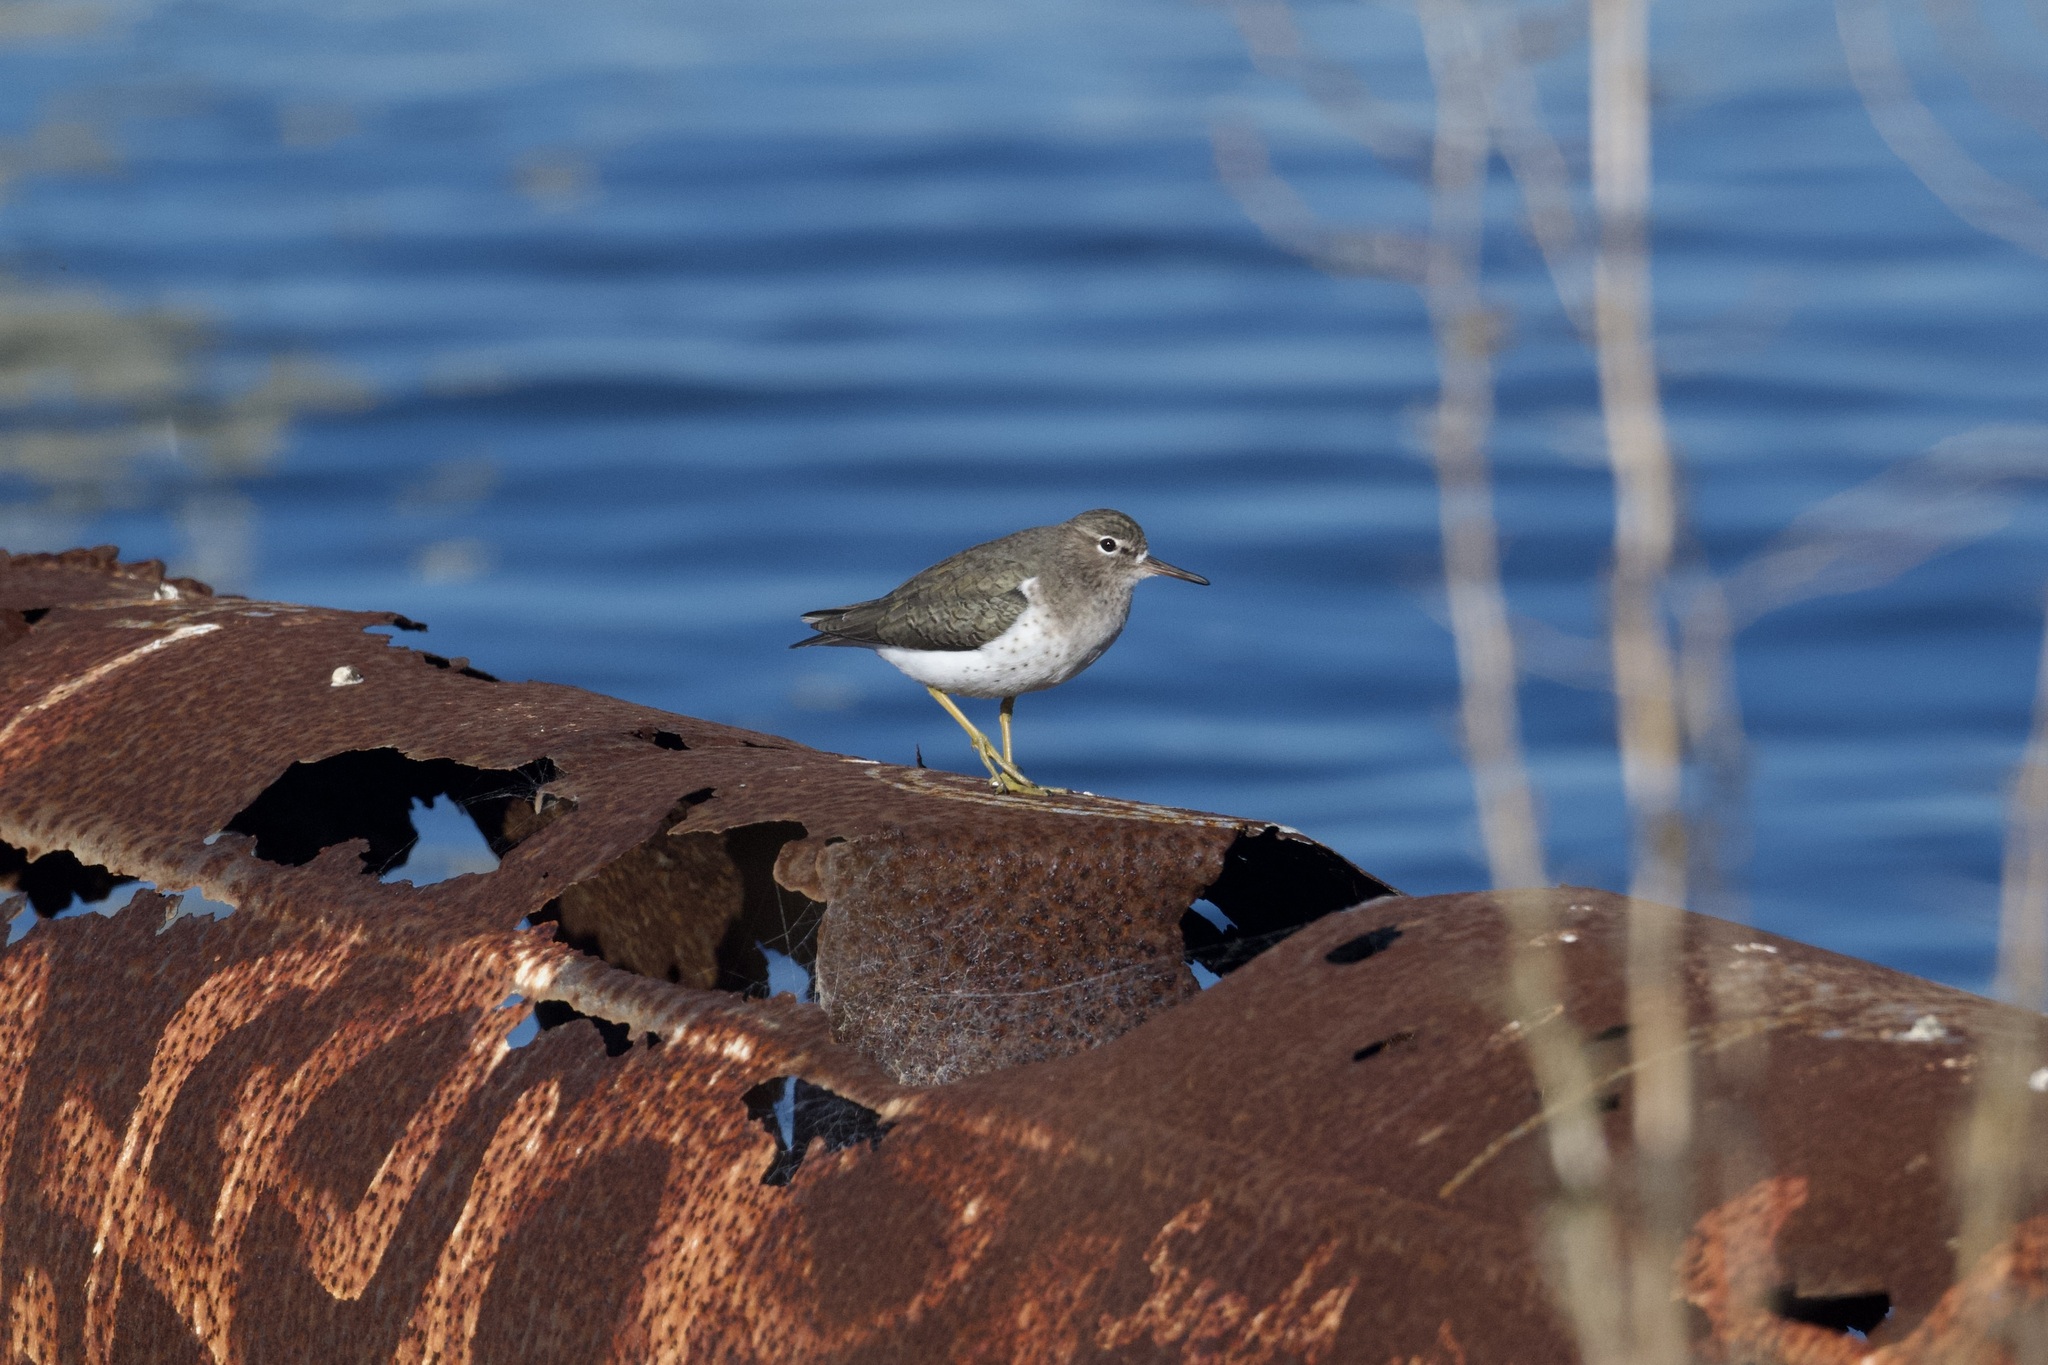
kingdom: Animalia
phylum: Chordata
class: Aves
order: Charadriiformes
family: Scolopacidae
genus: Actitis
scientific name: Actitis macularius
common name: Spotted sandpiper
